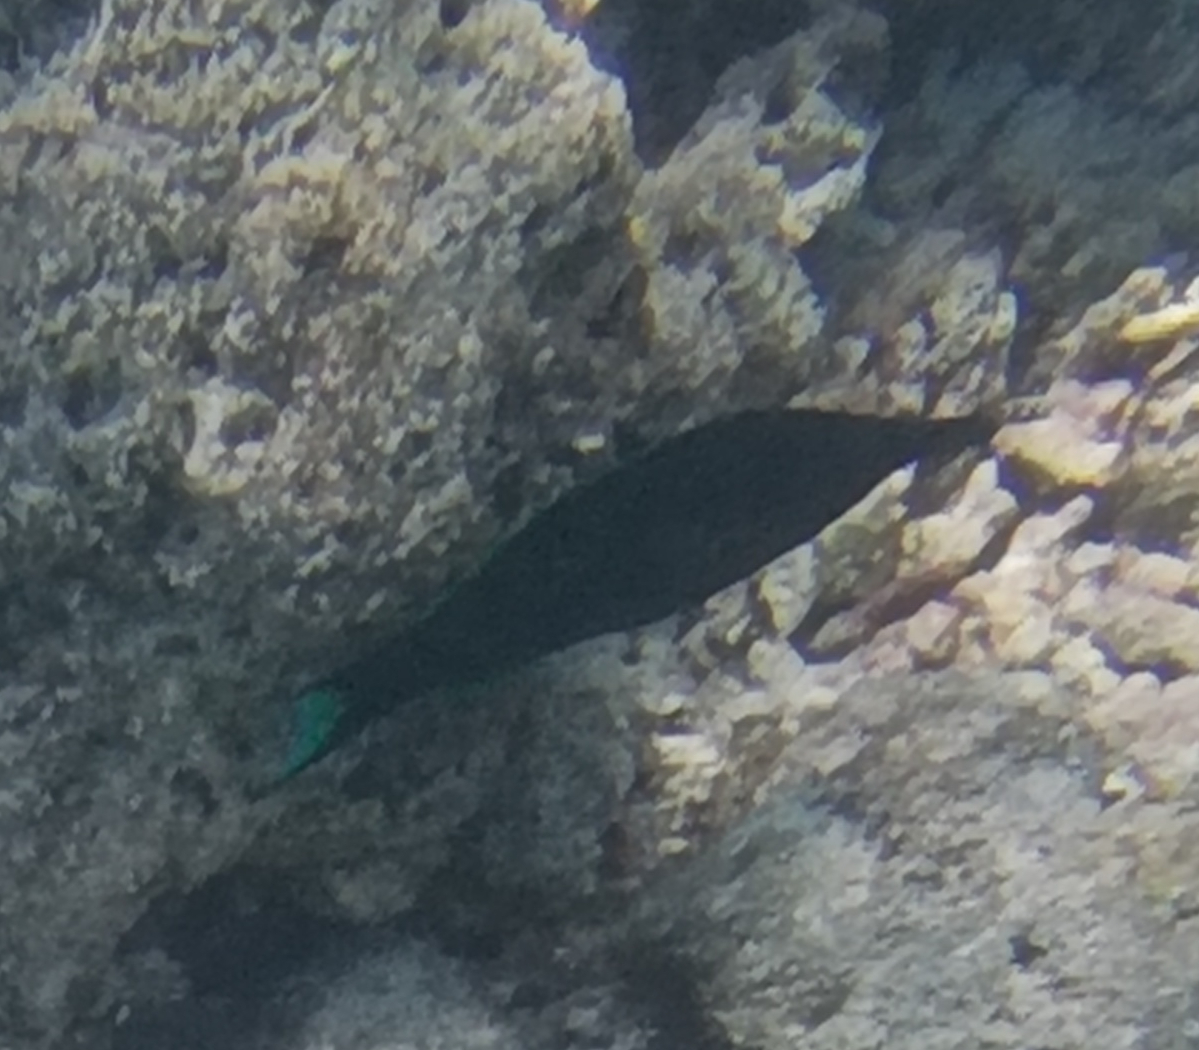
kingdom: Animalia
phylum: Chordata
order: Perciformes
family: Labridae
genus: Gomphosus
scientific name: Gomphosus caeruleus
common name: Bird wrasse
